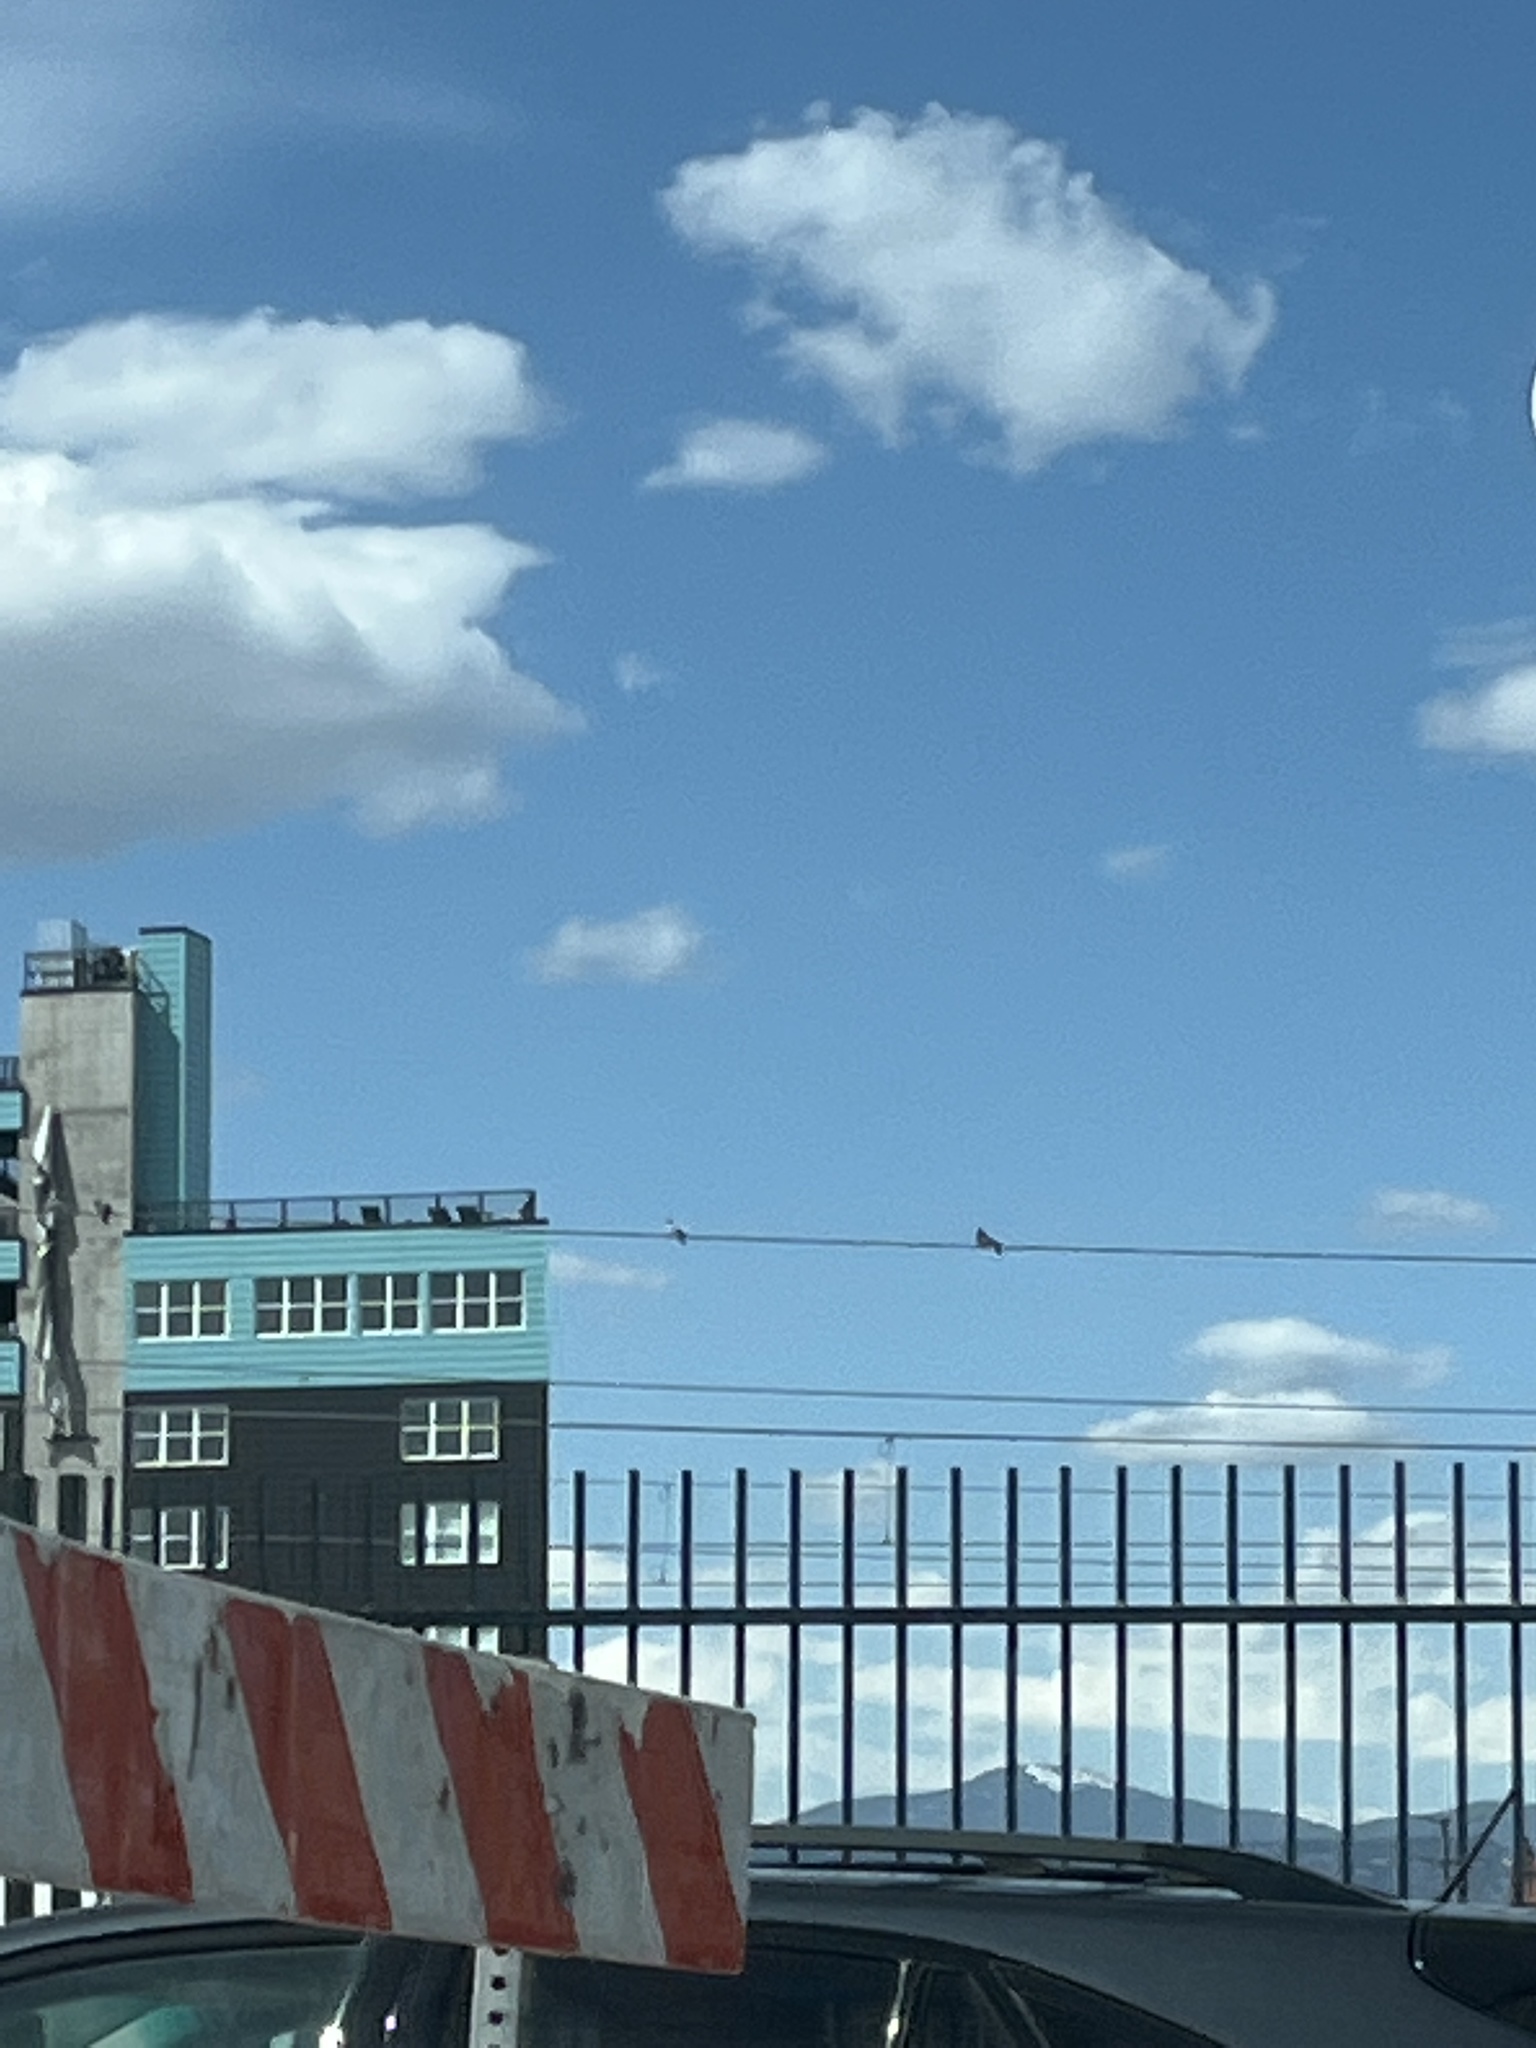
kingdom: Animalia
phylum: Chordata
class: Aves
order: Columbiformes
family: Columbidae
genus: Columba
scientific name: Columba livia
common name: Rock pigeon
